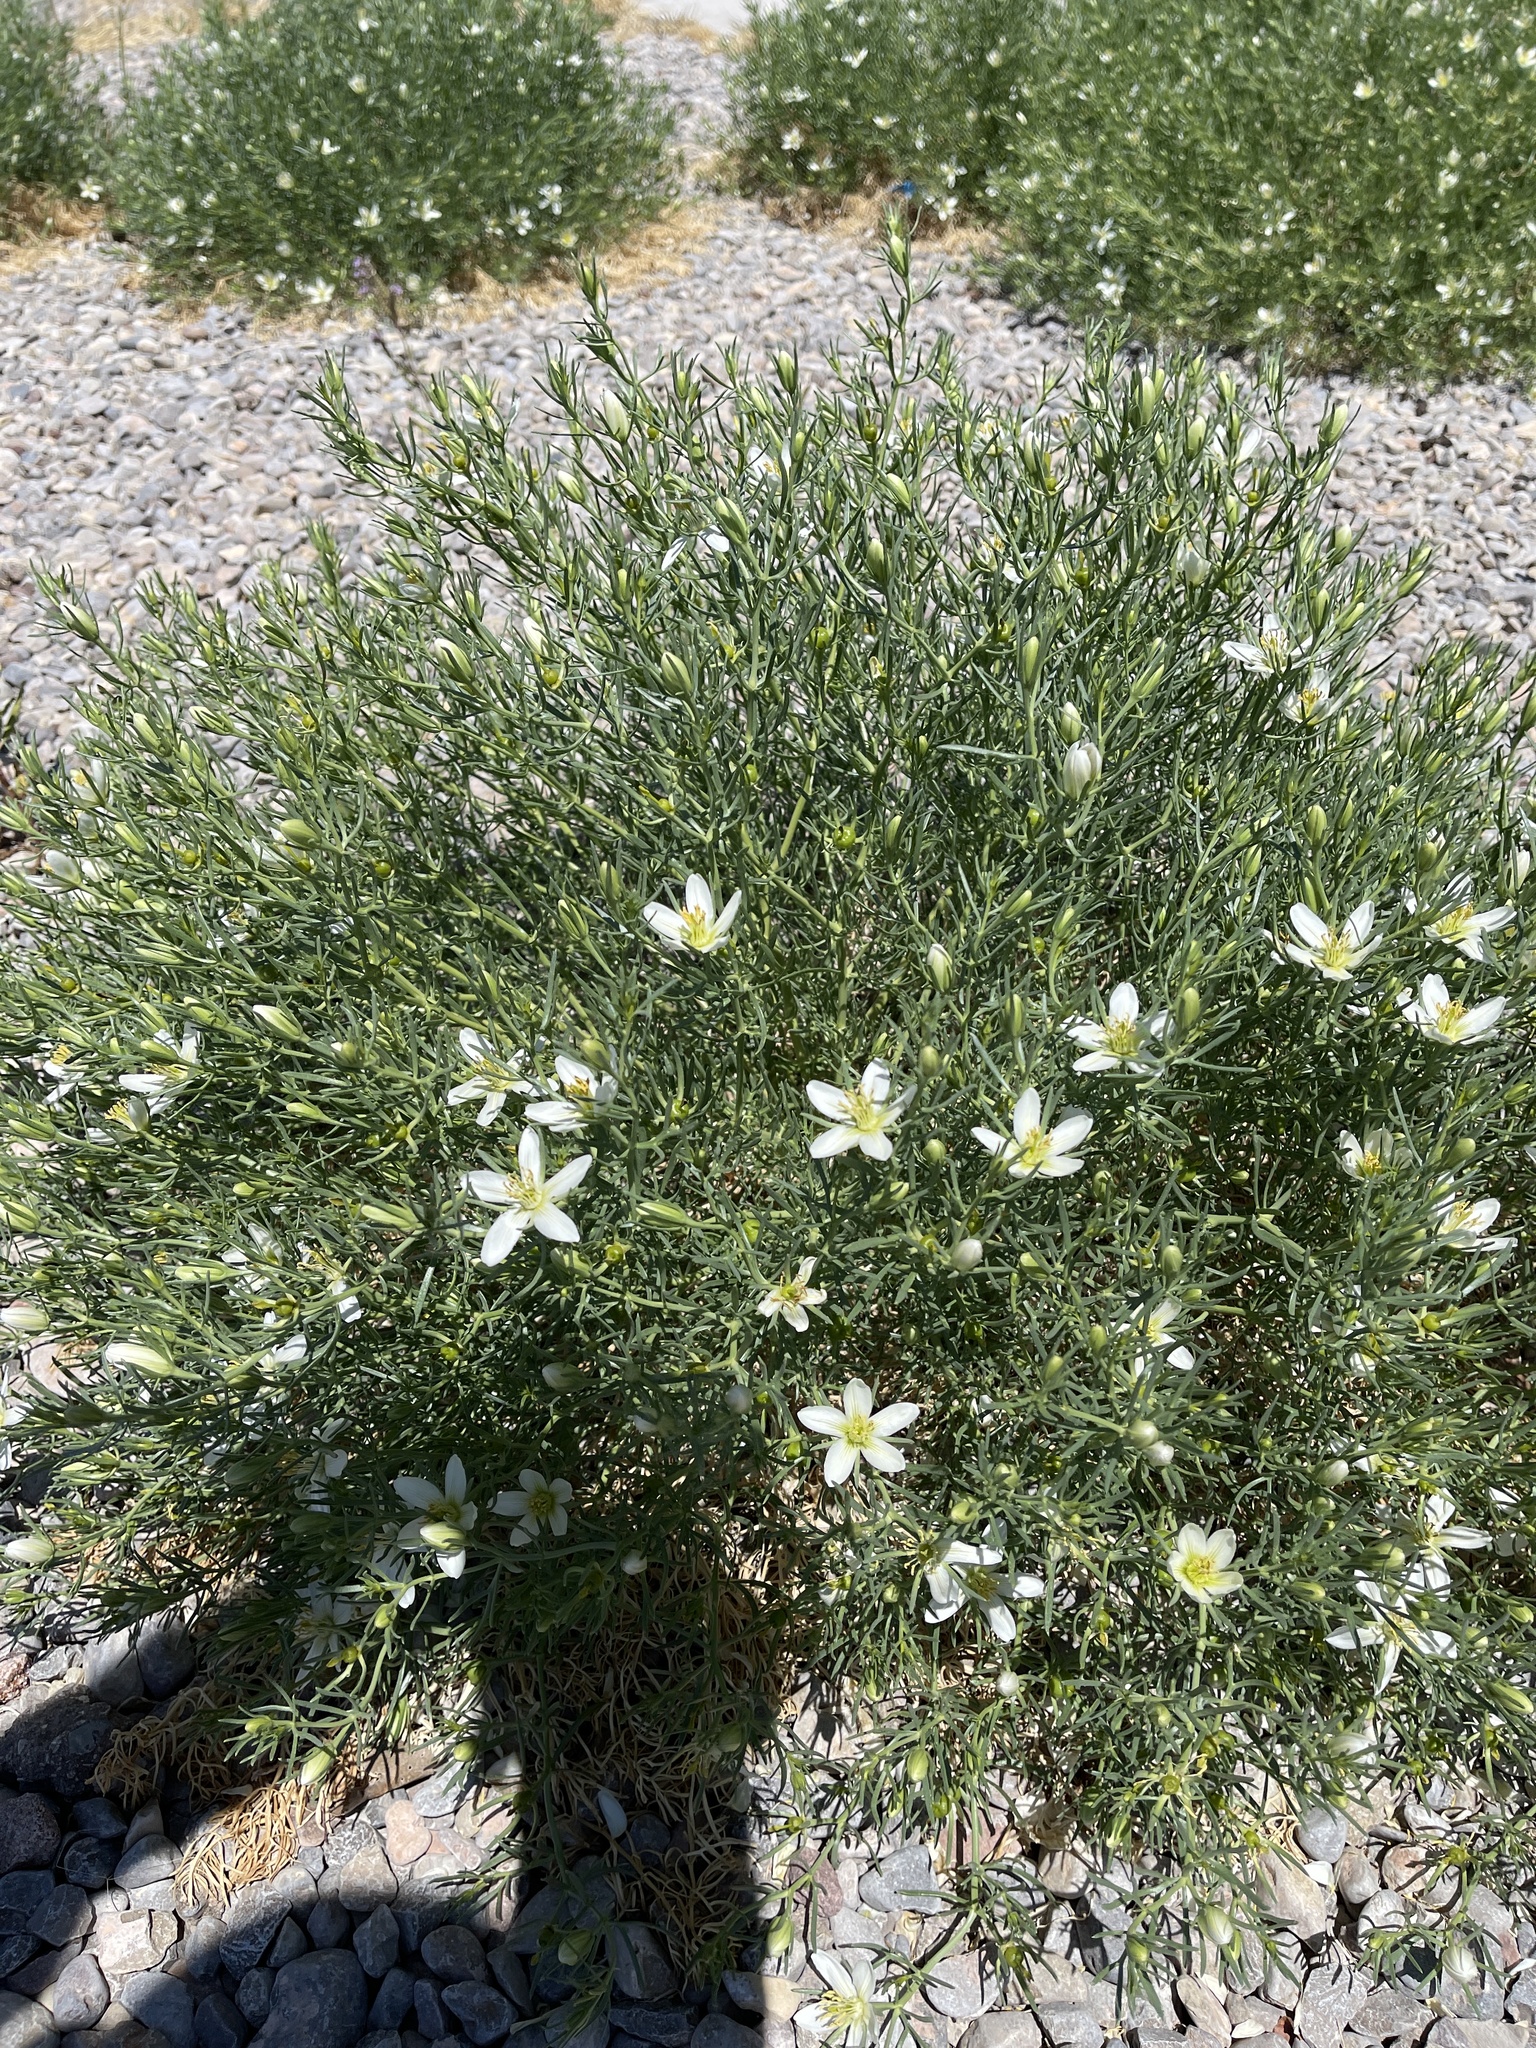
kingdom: Plantae
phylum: Tracheophyta
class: Magnoliopsida
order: Sapindales
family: Tetradiclidaceae
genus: Peganum
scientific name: Peganum harmala
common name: Harmal peganum
